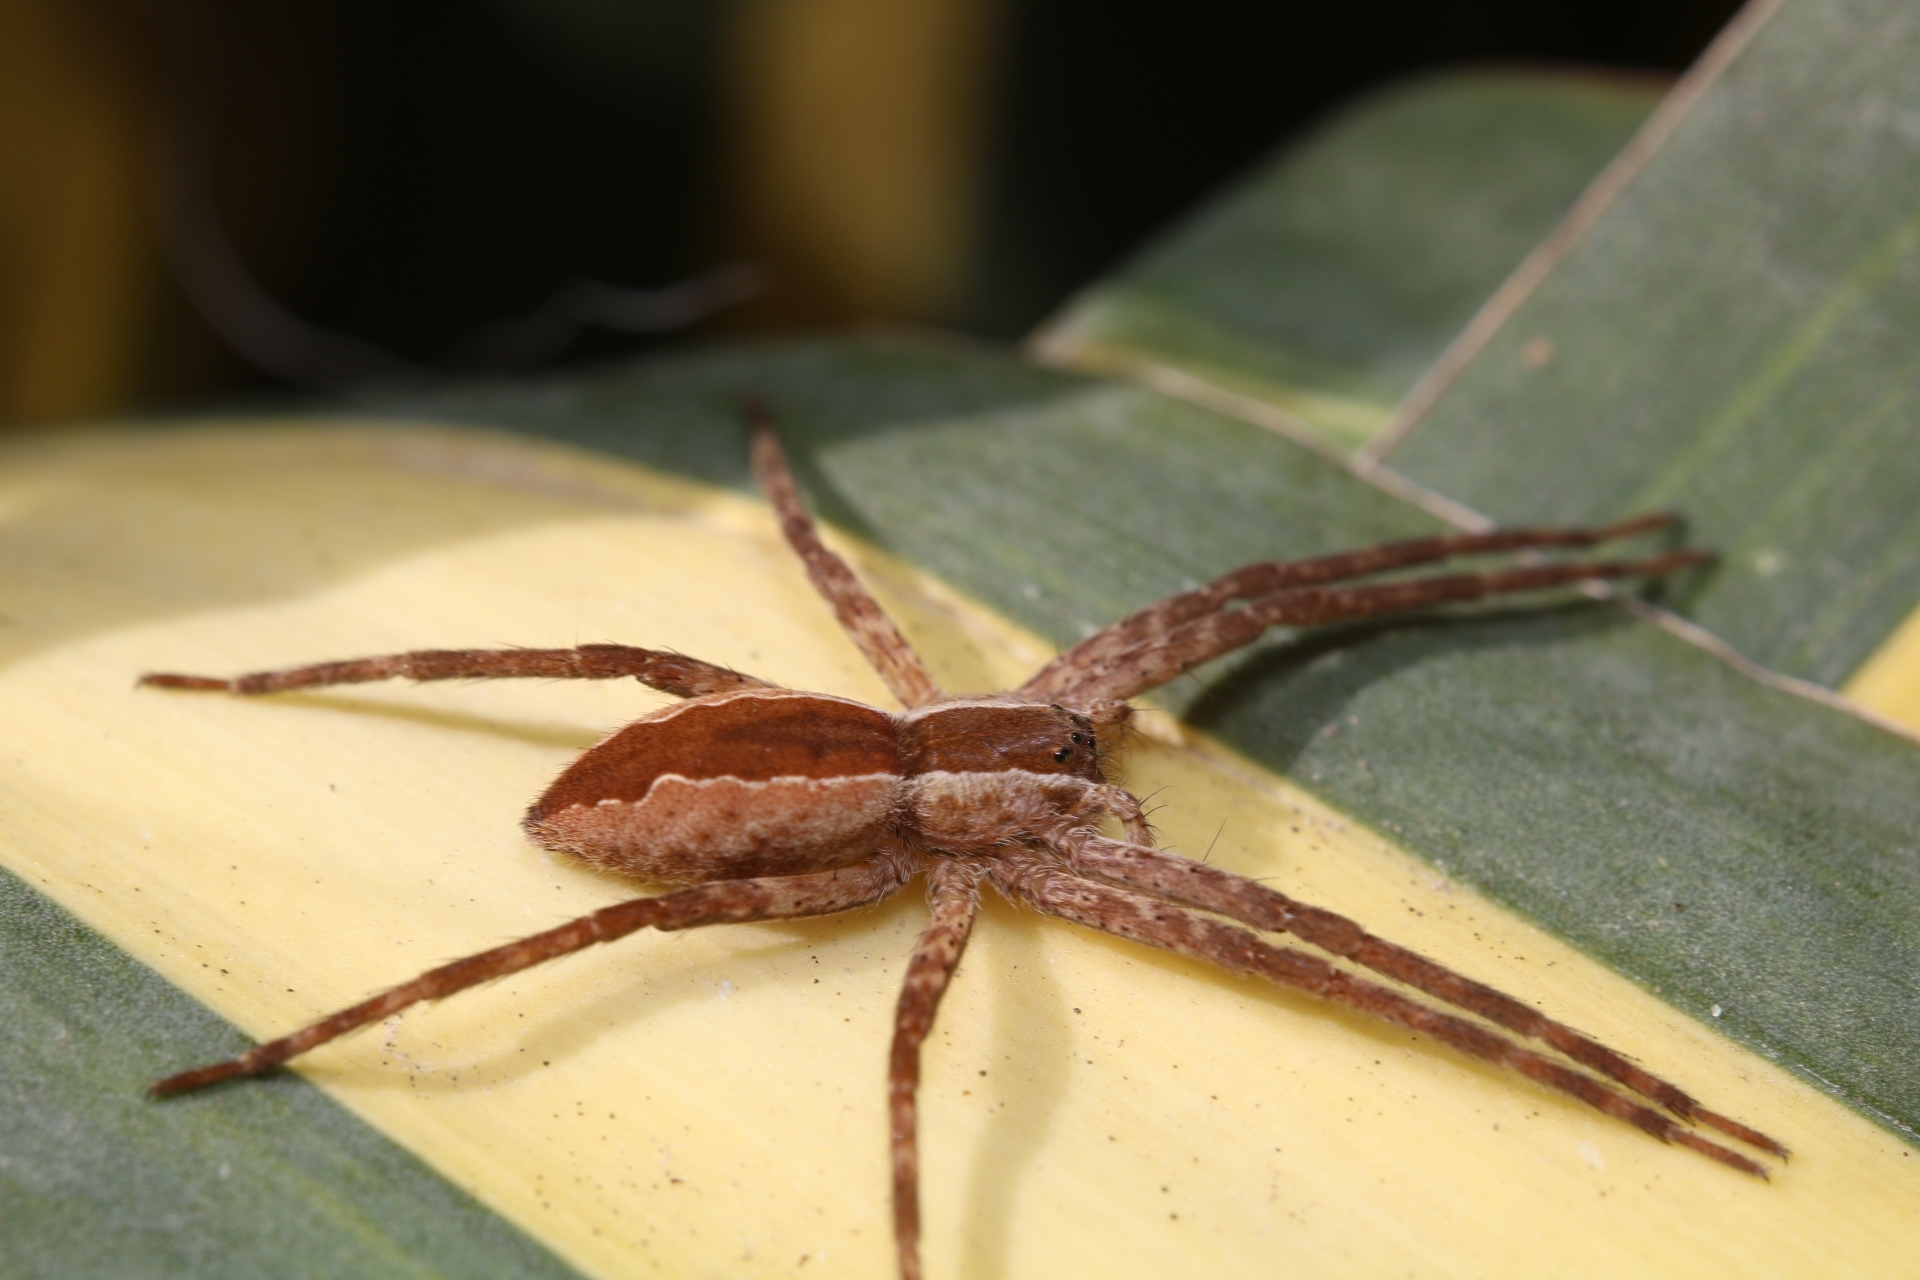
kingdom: Animalia
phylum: Arthropoda
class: Arachnida
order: Araneae
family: Pisauridae
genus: Pisaurina
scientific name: Pisaurina mira
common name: American nursery web spider
